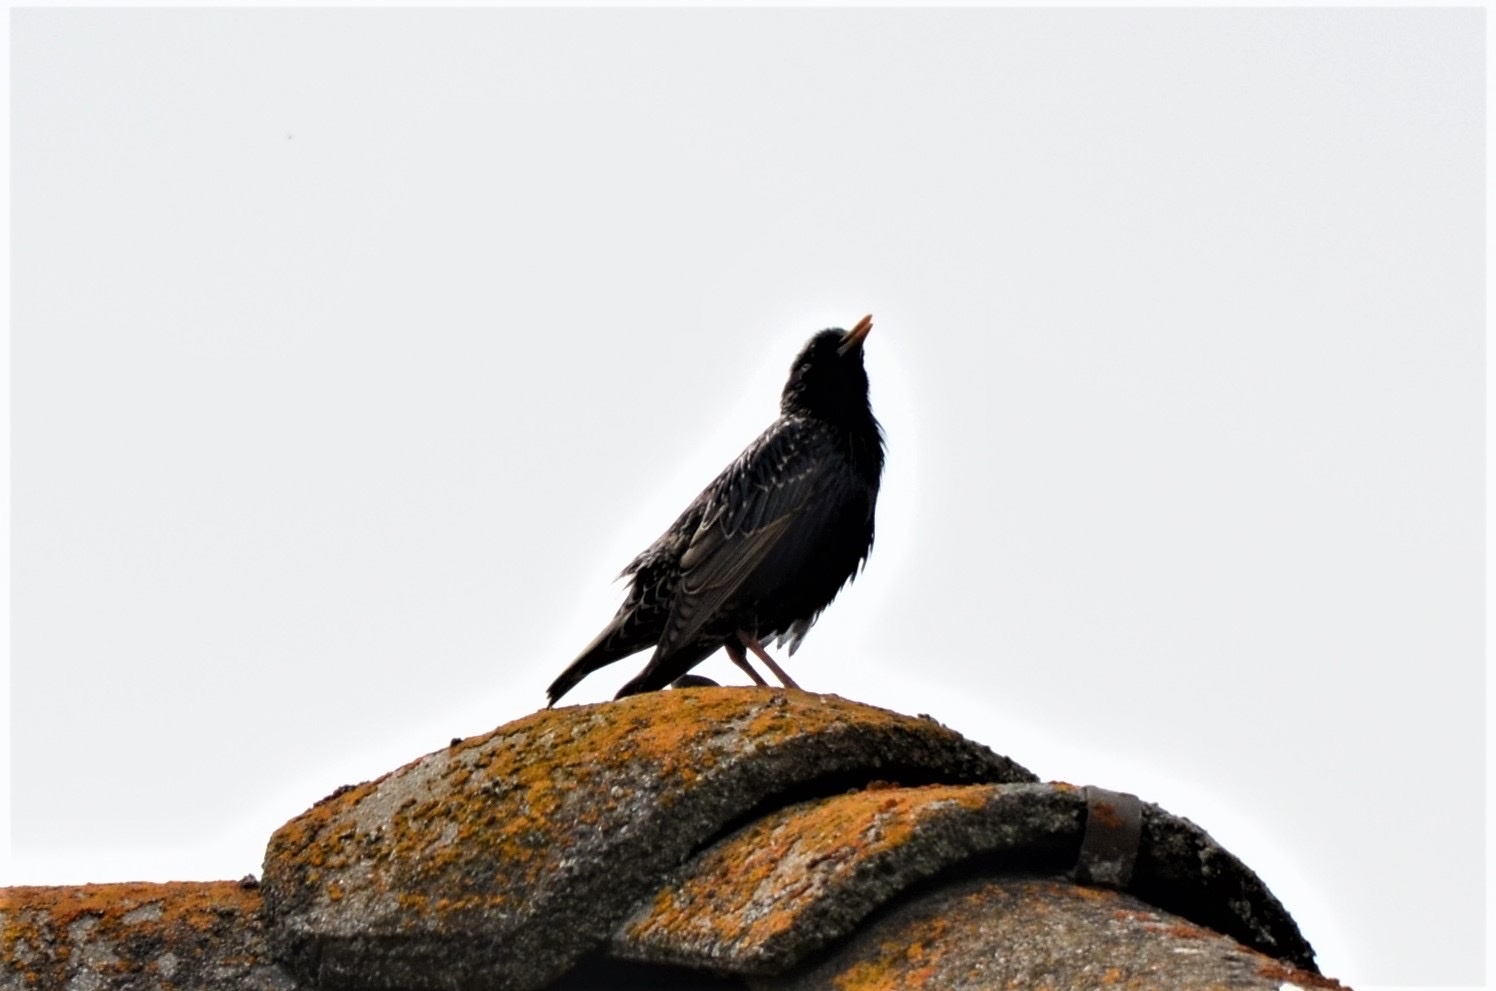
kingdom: Animalia
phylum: Chordata
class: Aves
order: Passeriformes
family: Sturnidae
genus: Sturnus
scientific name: Sturnus vulgaris
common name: Common starling
